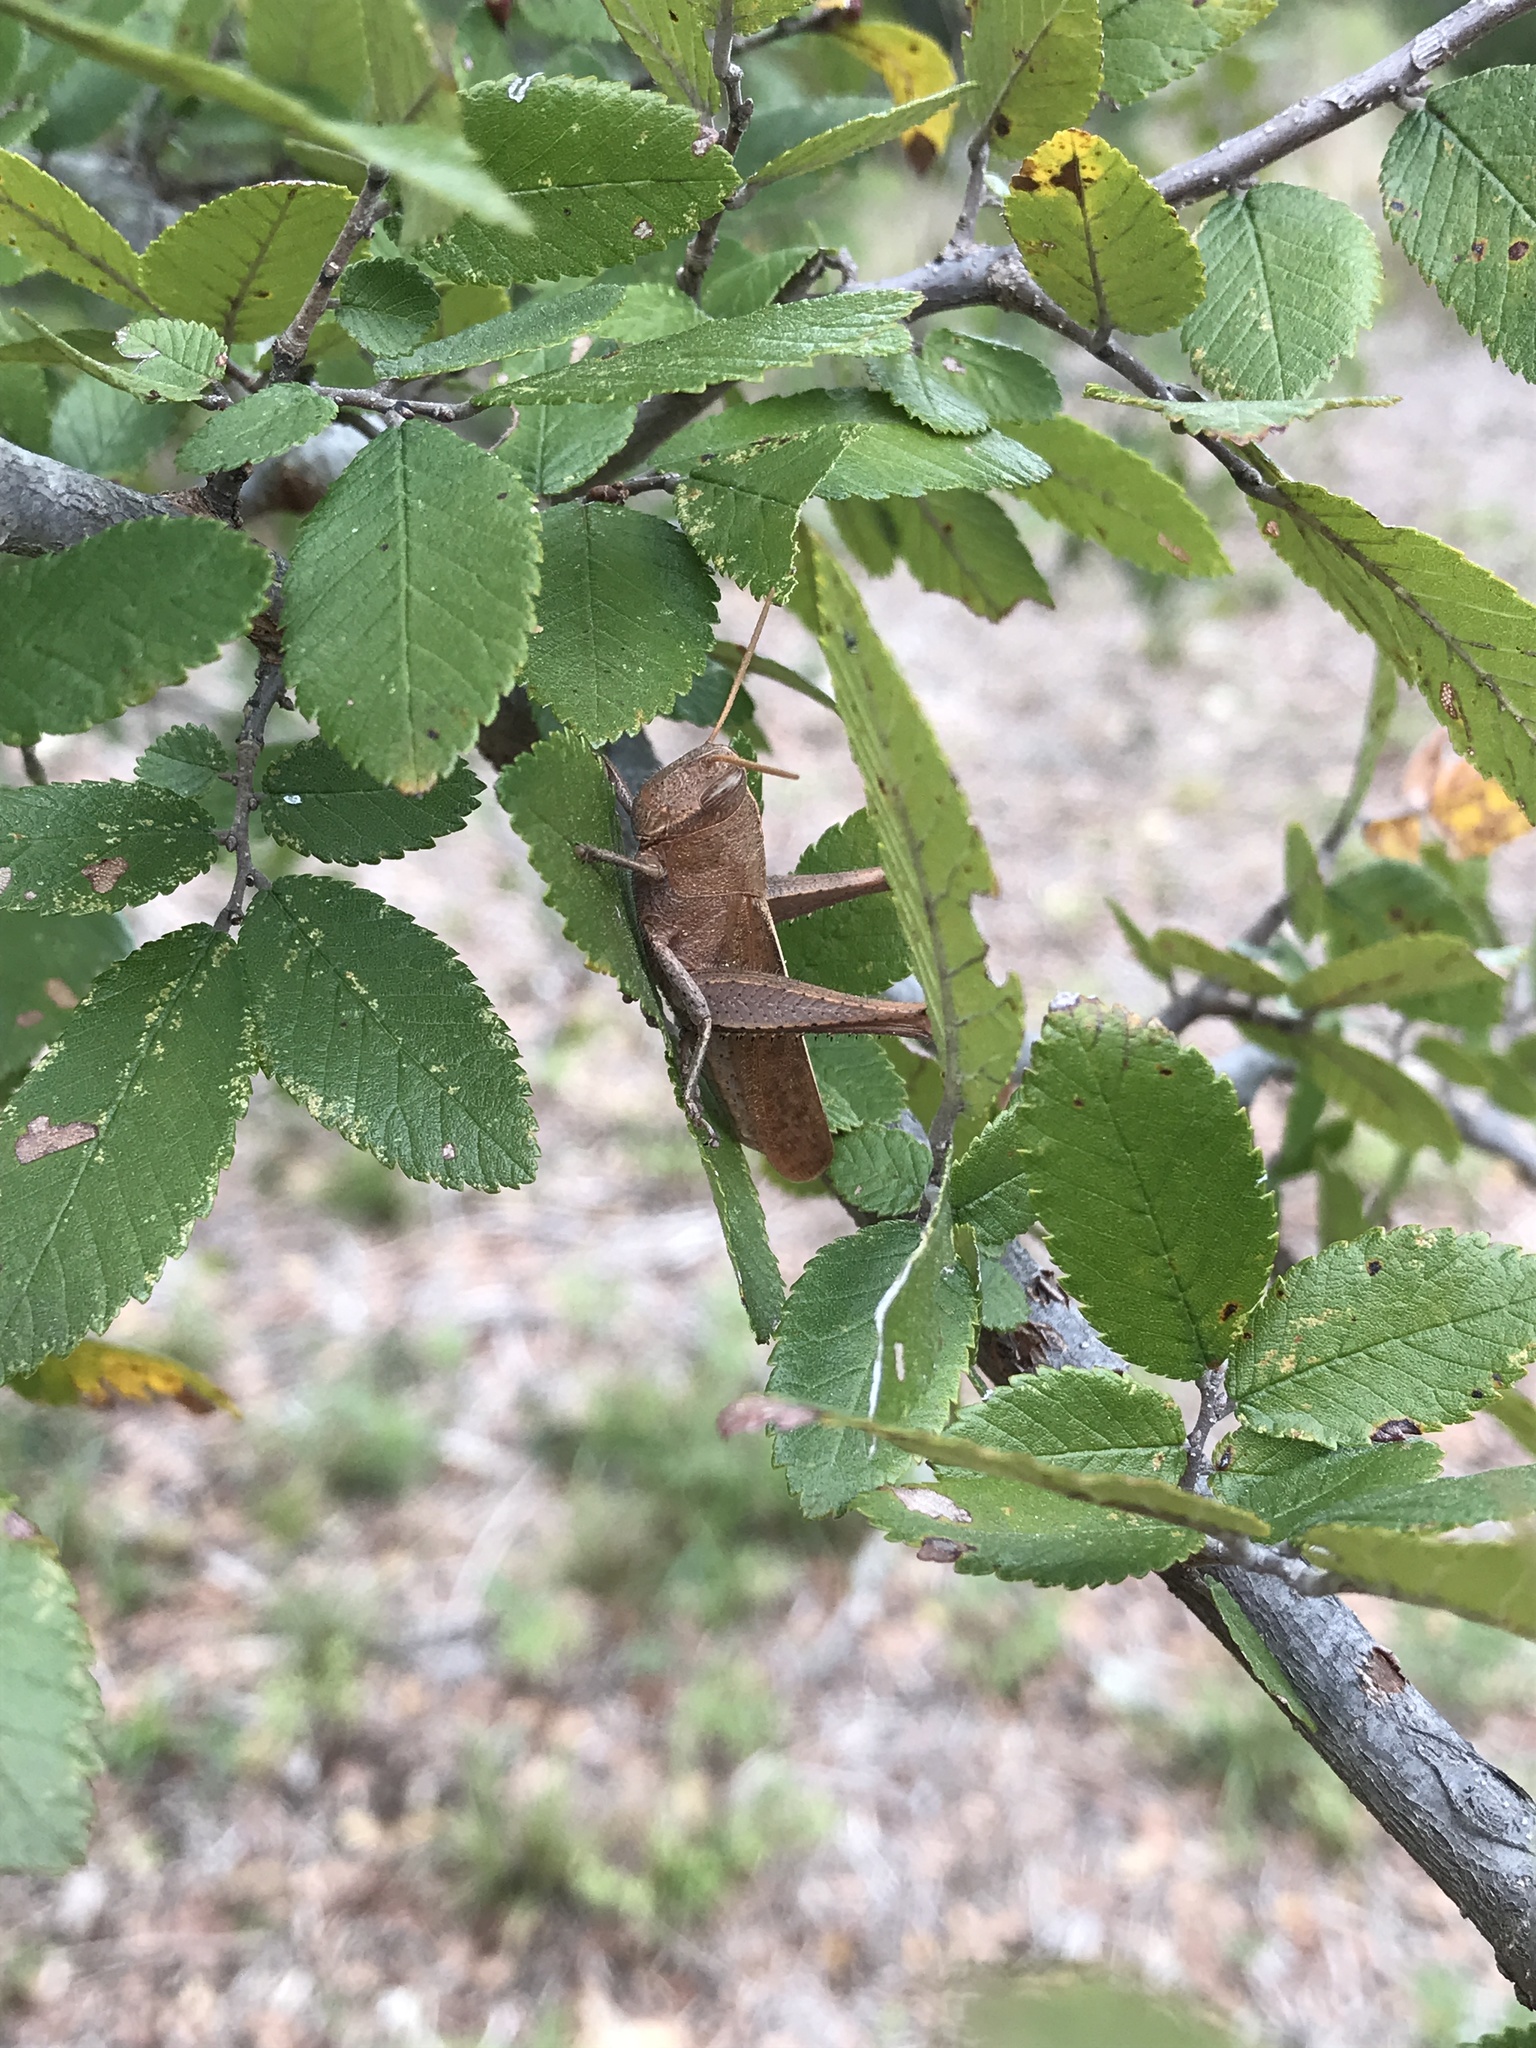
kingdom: Animalia
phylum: Arthropoda
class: Insecta
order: Orthoptera
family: Acrididae
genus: Schistocerca
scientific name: Schistocerca damnifica
